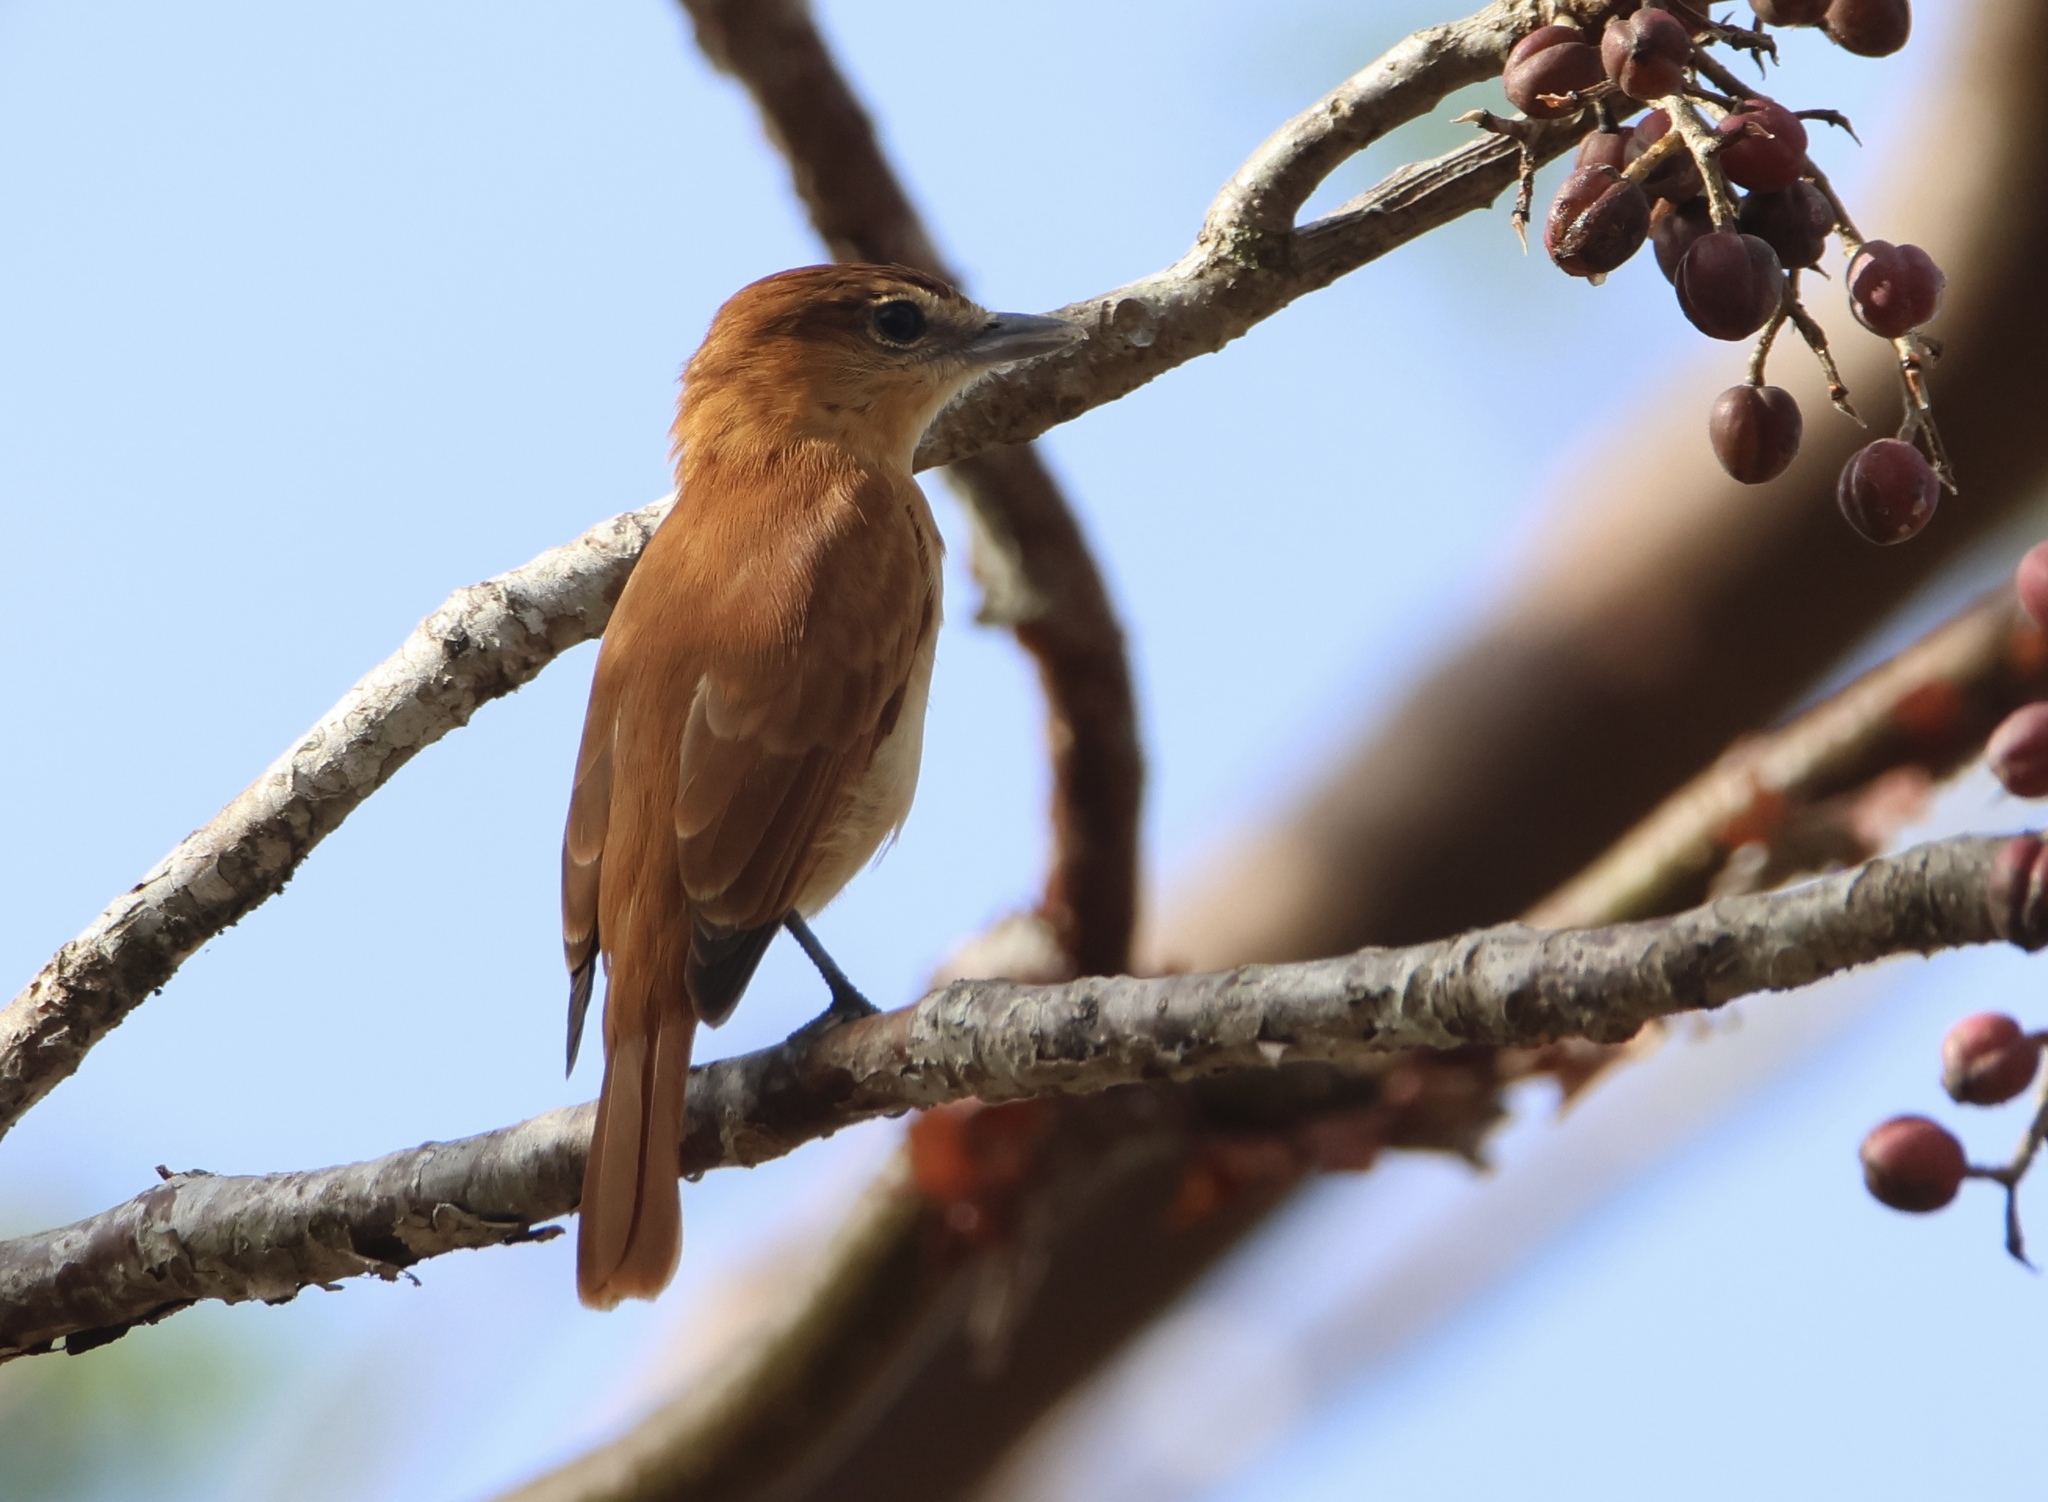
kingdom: Animalia
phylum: Chordata
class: Aves
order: Passeriformes
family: Cotingidae
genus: Pachyramphus
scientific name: Pachyramphus cinnamomeus
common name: Cinnamon becard
